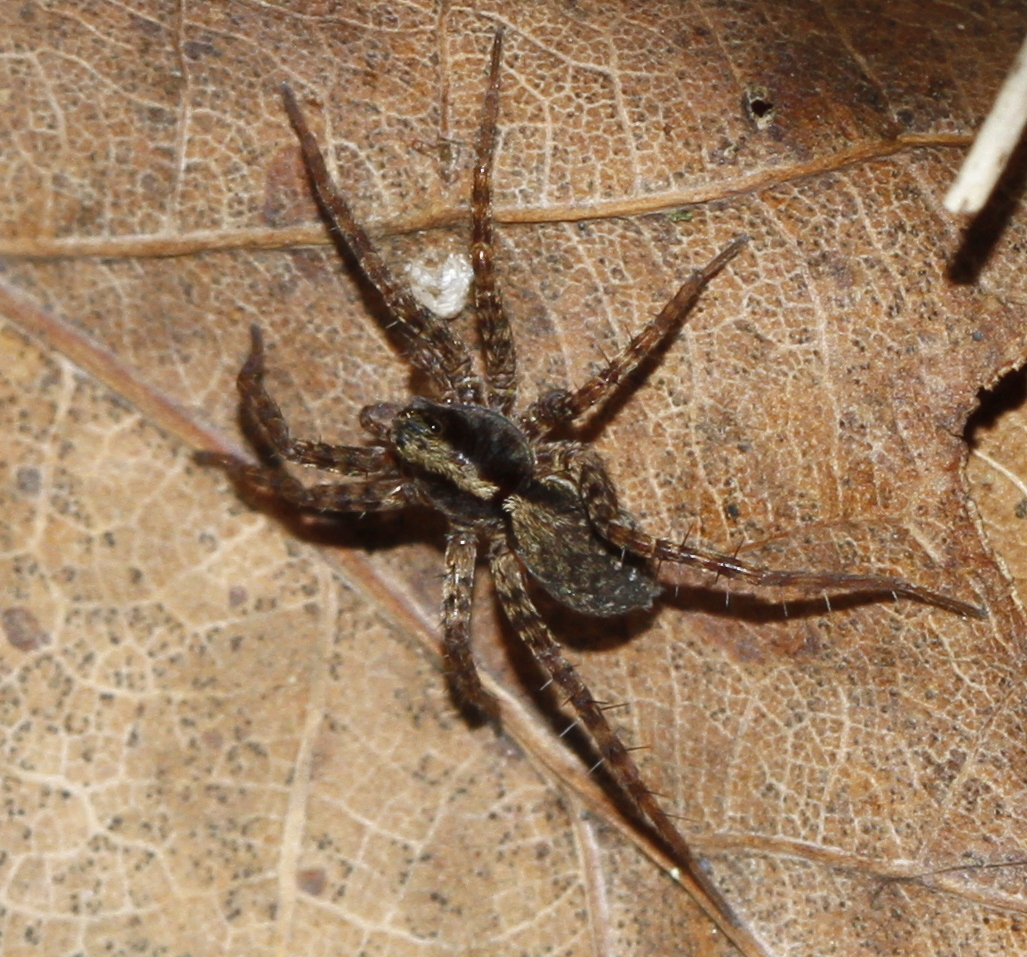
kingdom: Animalia
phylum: Arthropoda
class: Arachnida
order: Araneae
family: Lycosidae
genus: Pardosa
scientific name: Pardosa
